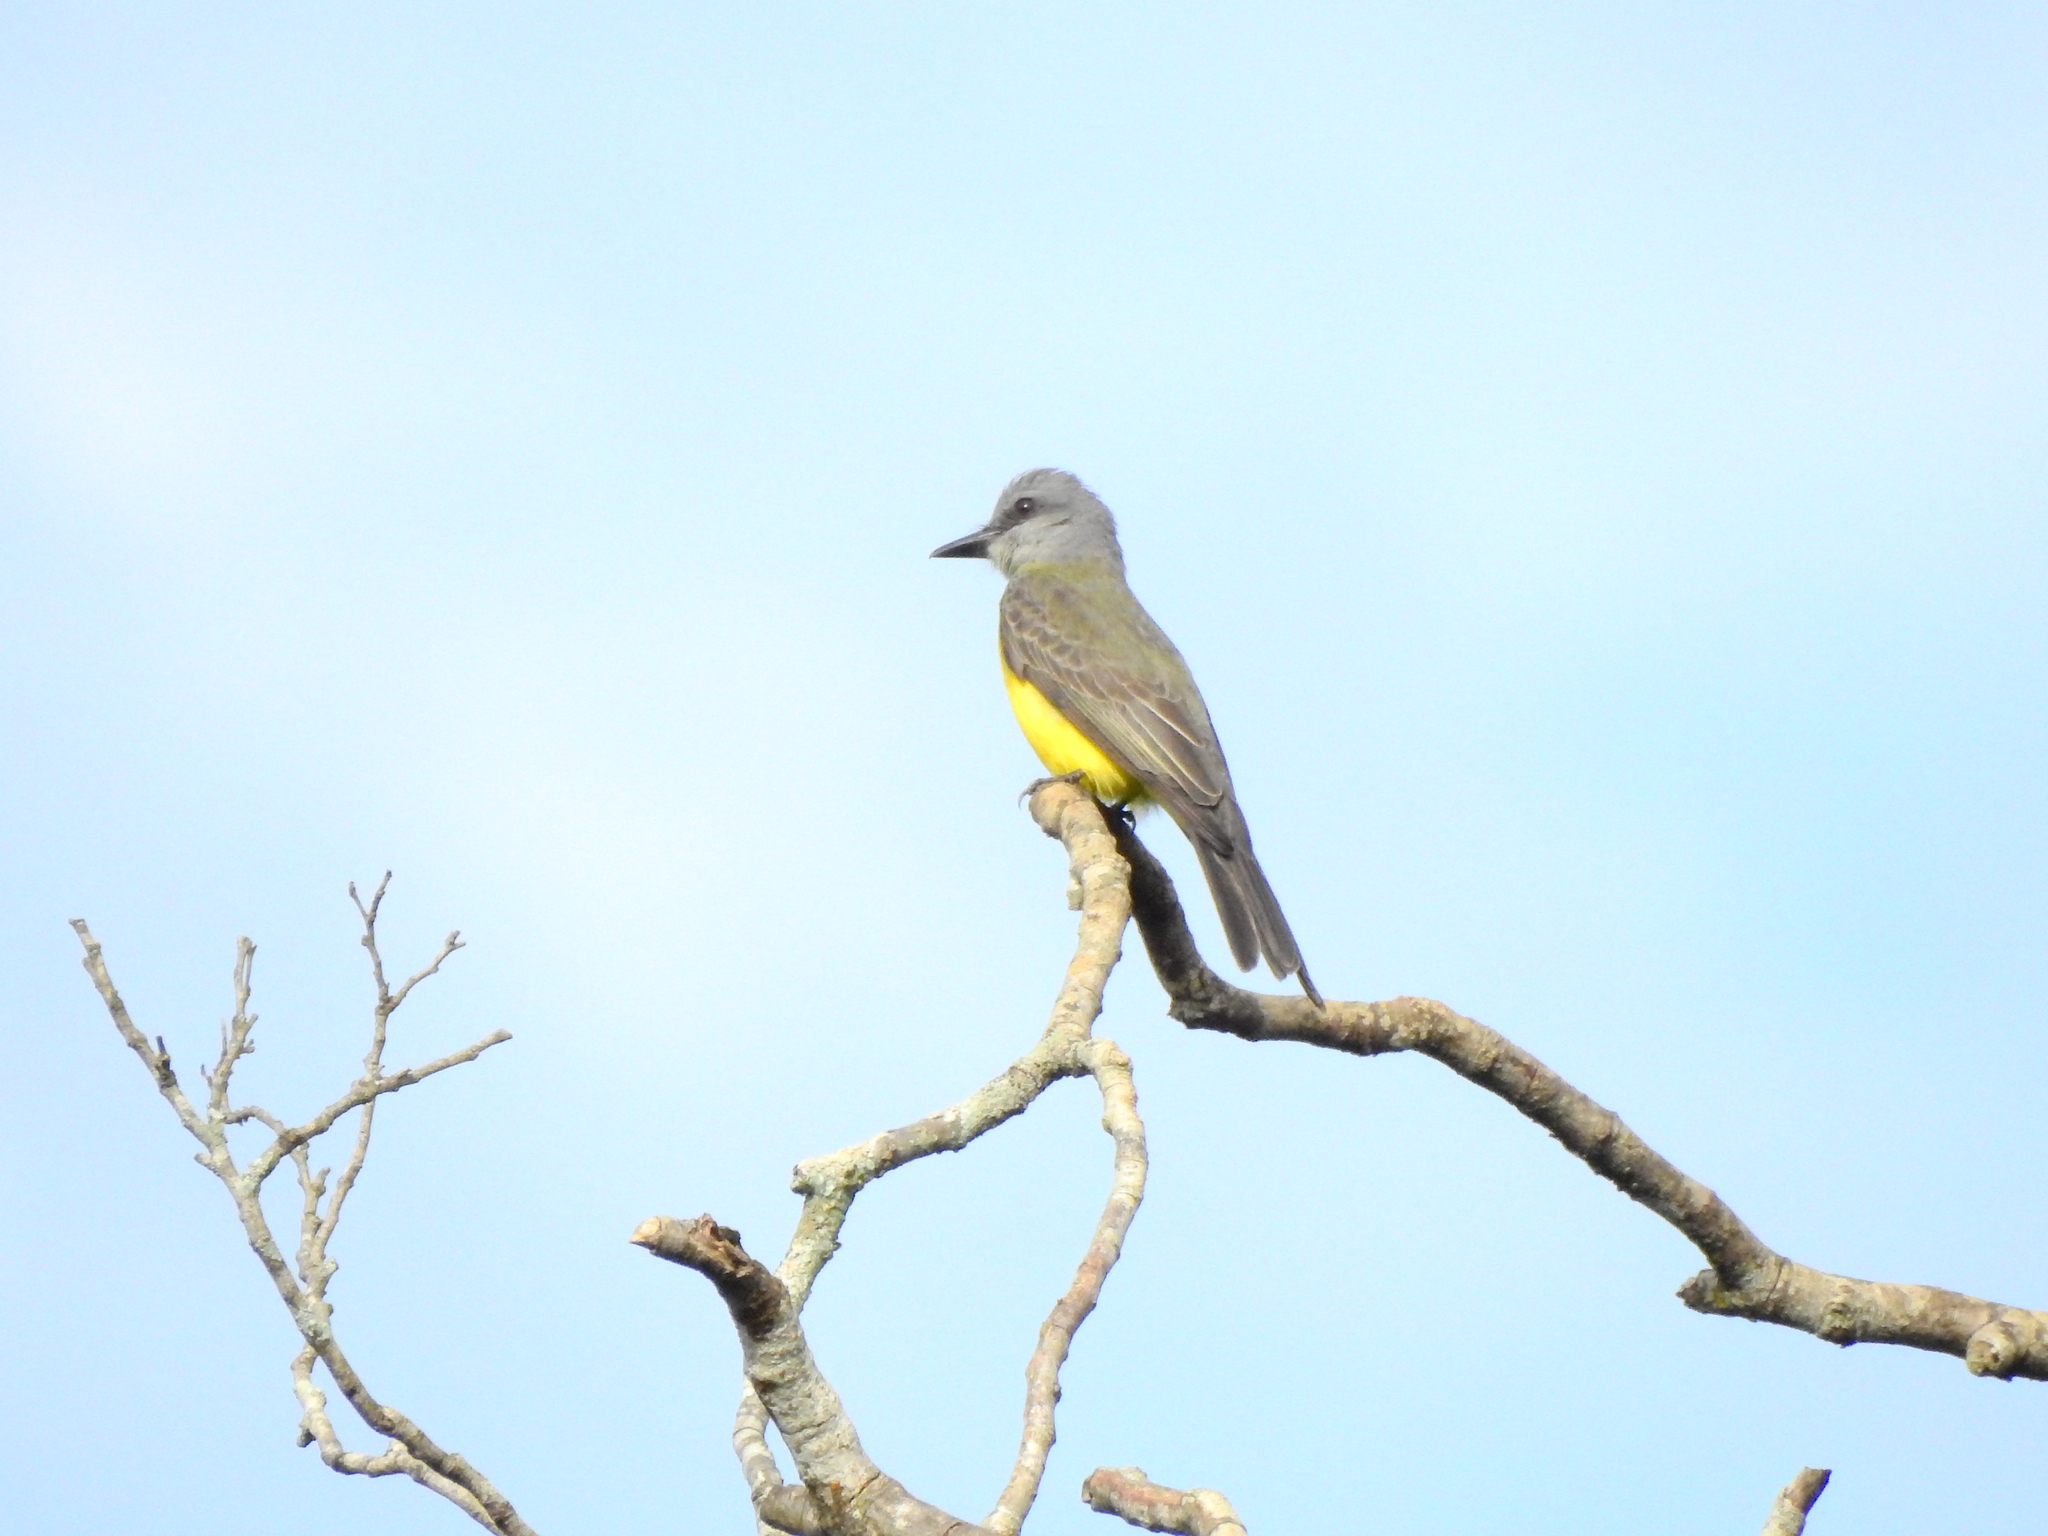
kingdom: Animalia
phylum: Chordata
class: Aves
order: Passeriformes
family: Tyrannidae
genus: Tyrannus
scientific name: Tyrannus melancholicus
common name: Tropical kingbird
